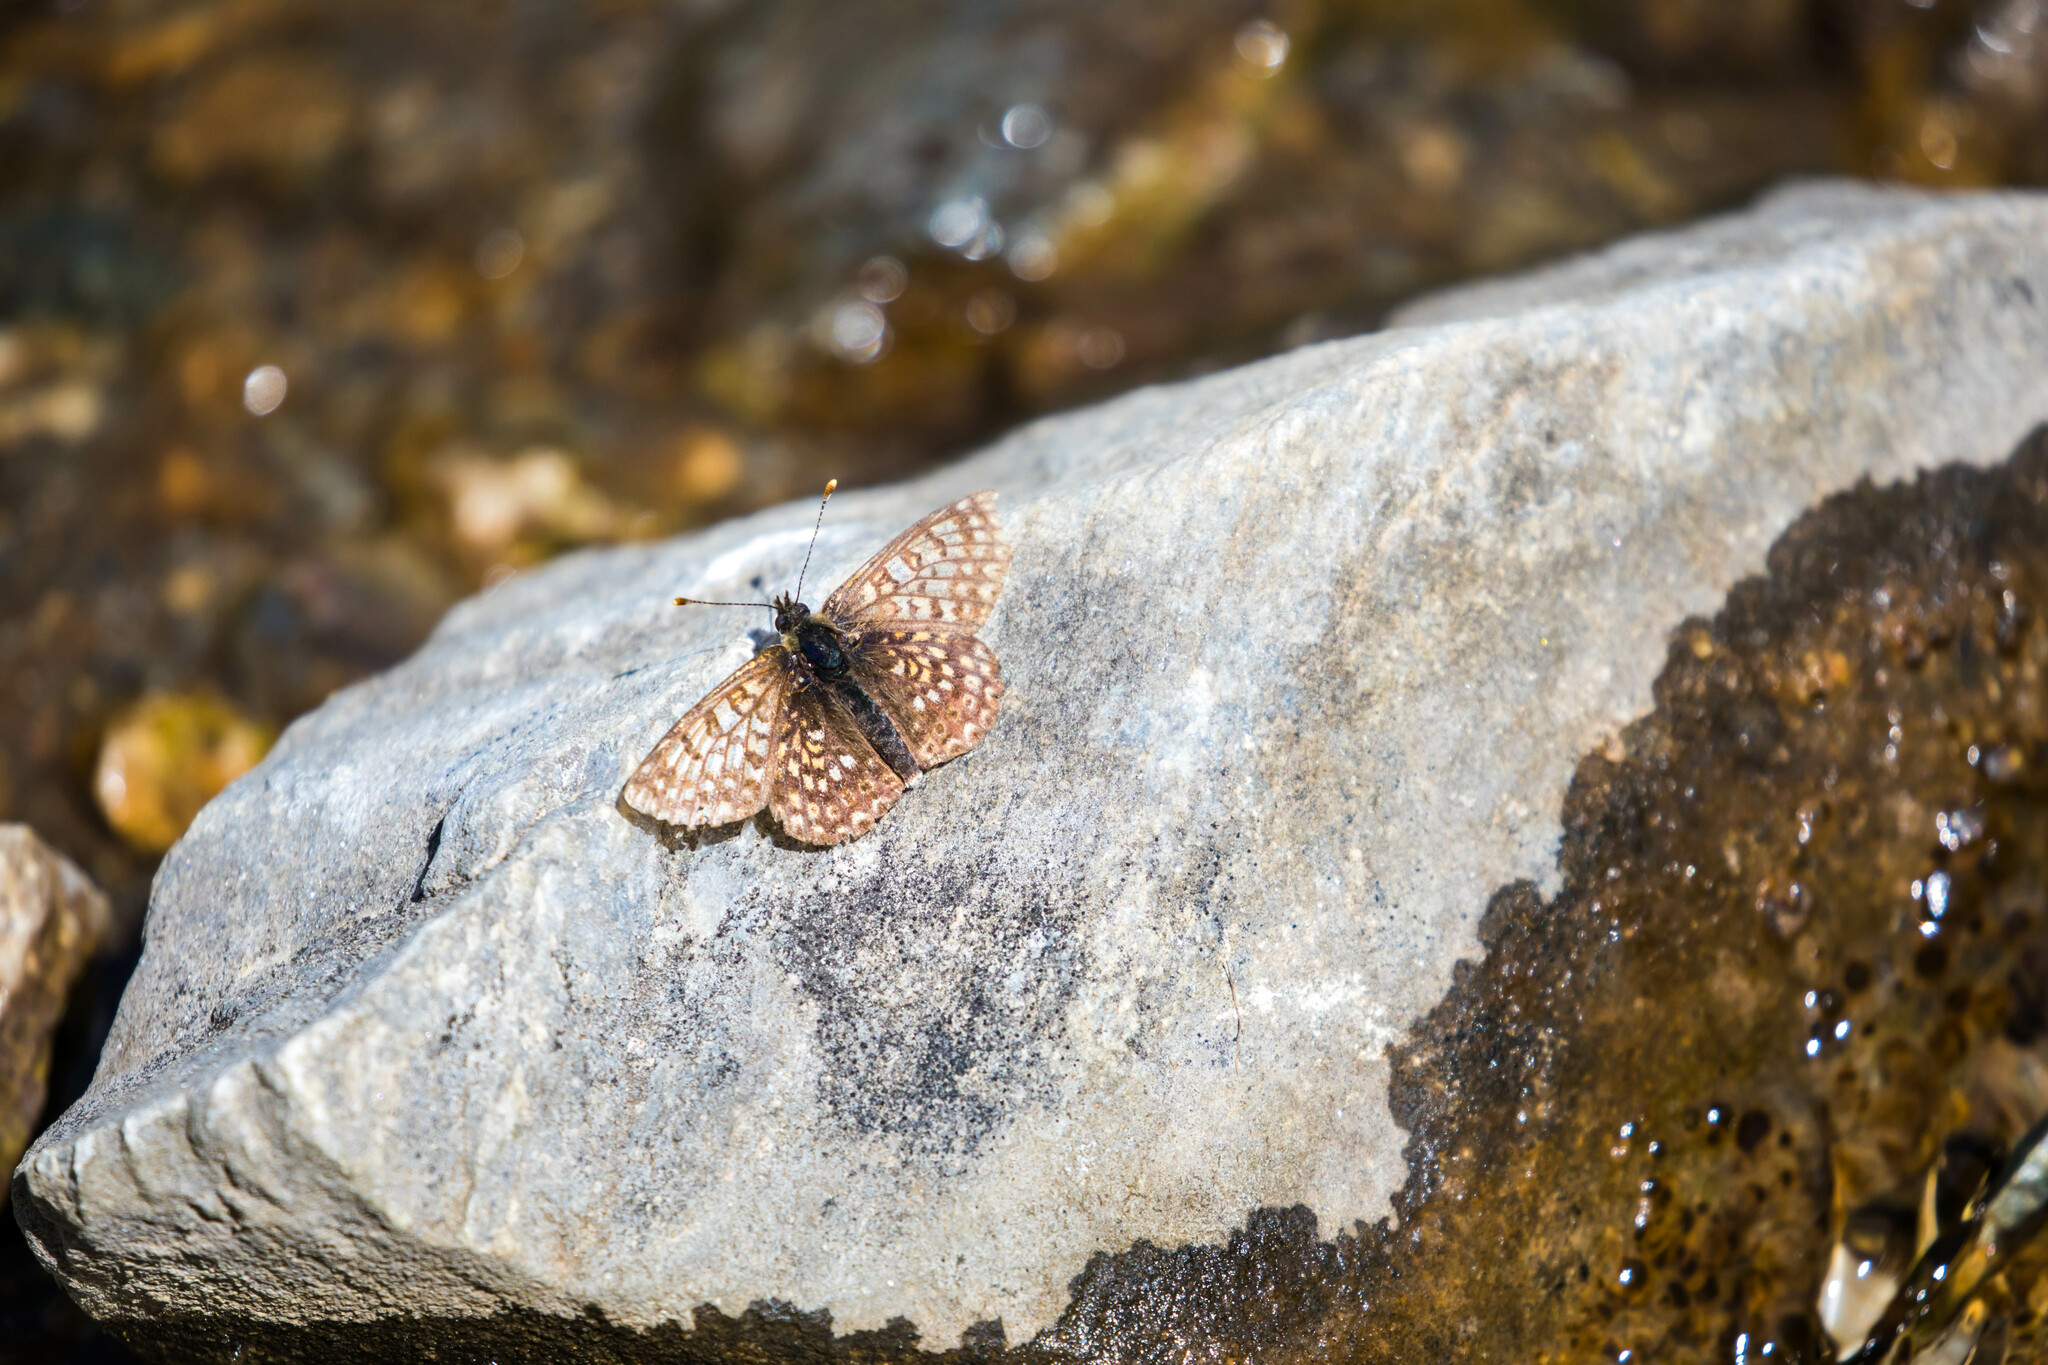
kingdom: Animalia
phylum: Arthropoda
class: Insecta
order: Lepidoptera
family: Nymphalidae
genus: Euphydryas
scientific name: Euphydryas aurinia
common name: Marsh fritillary
